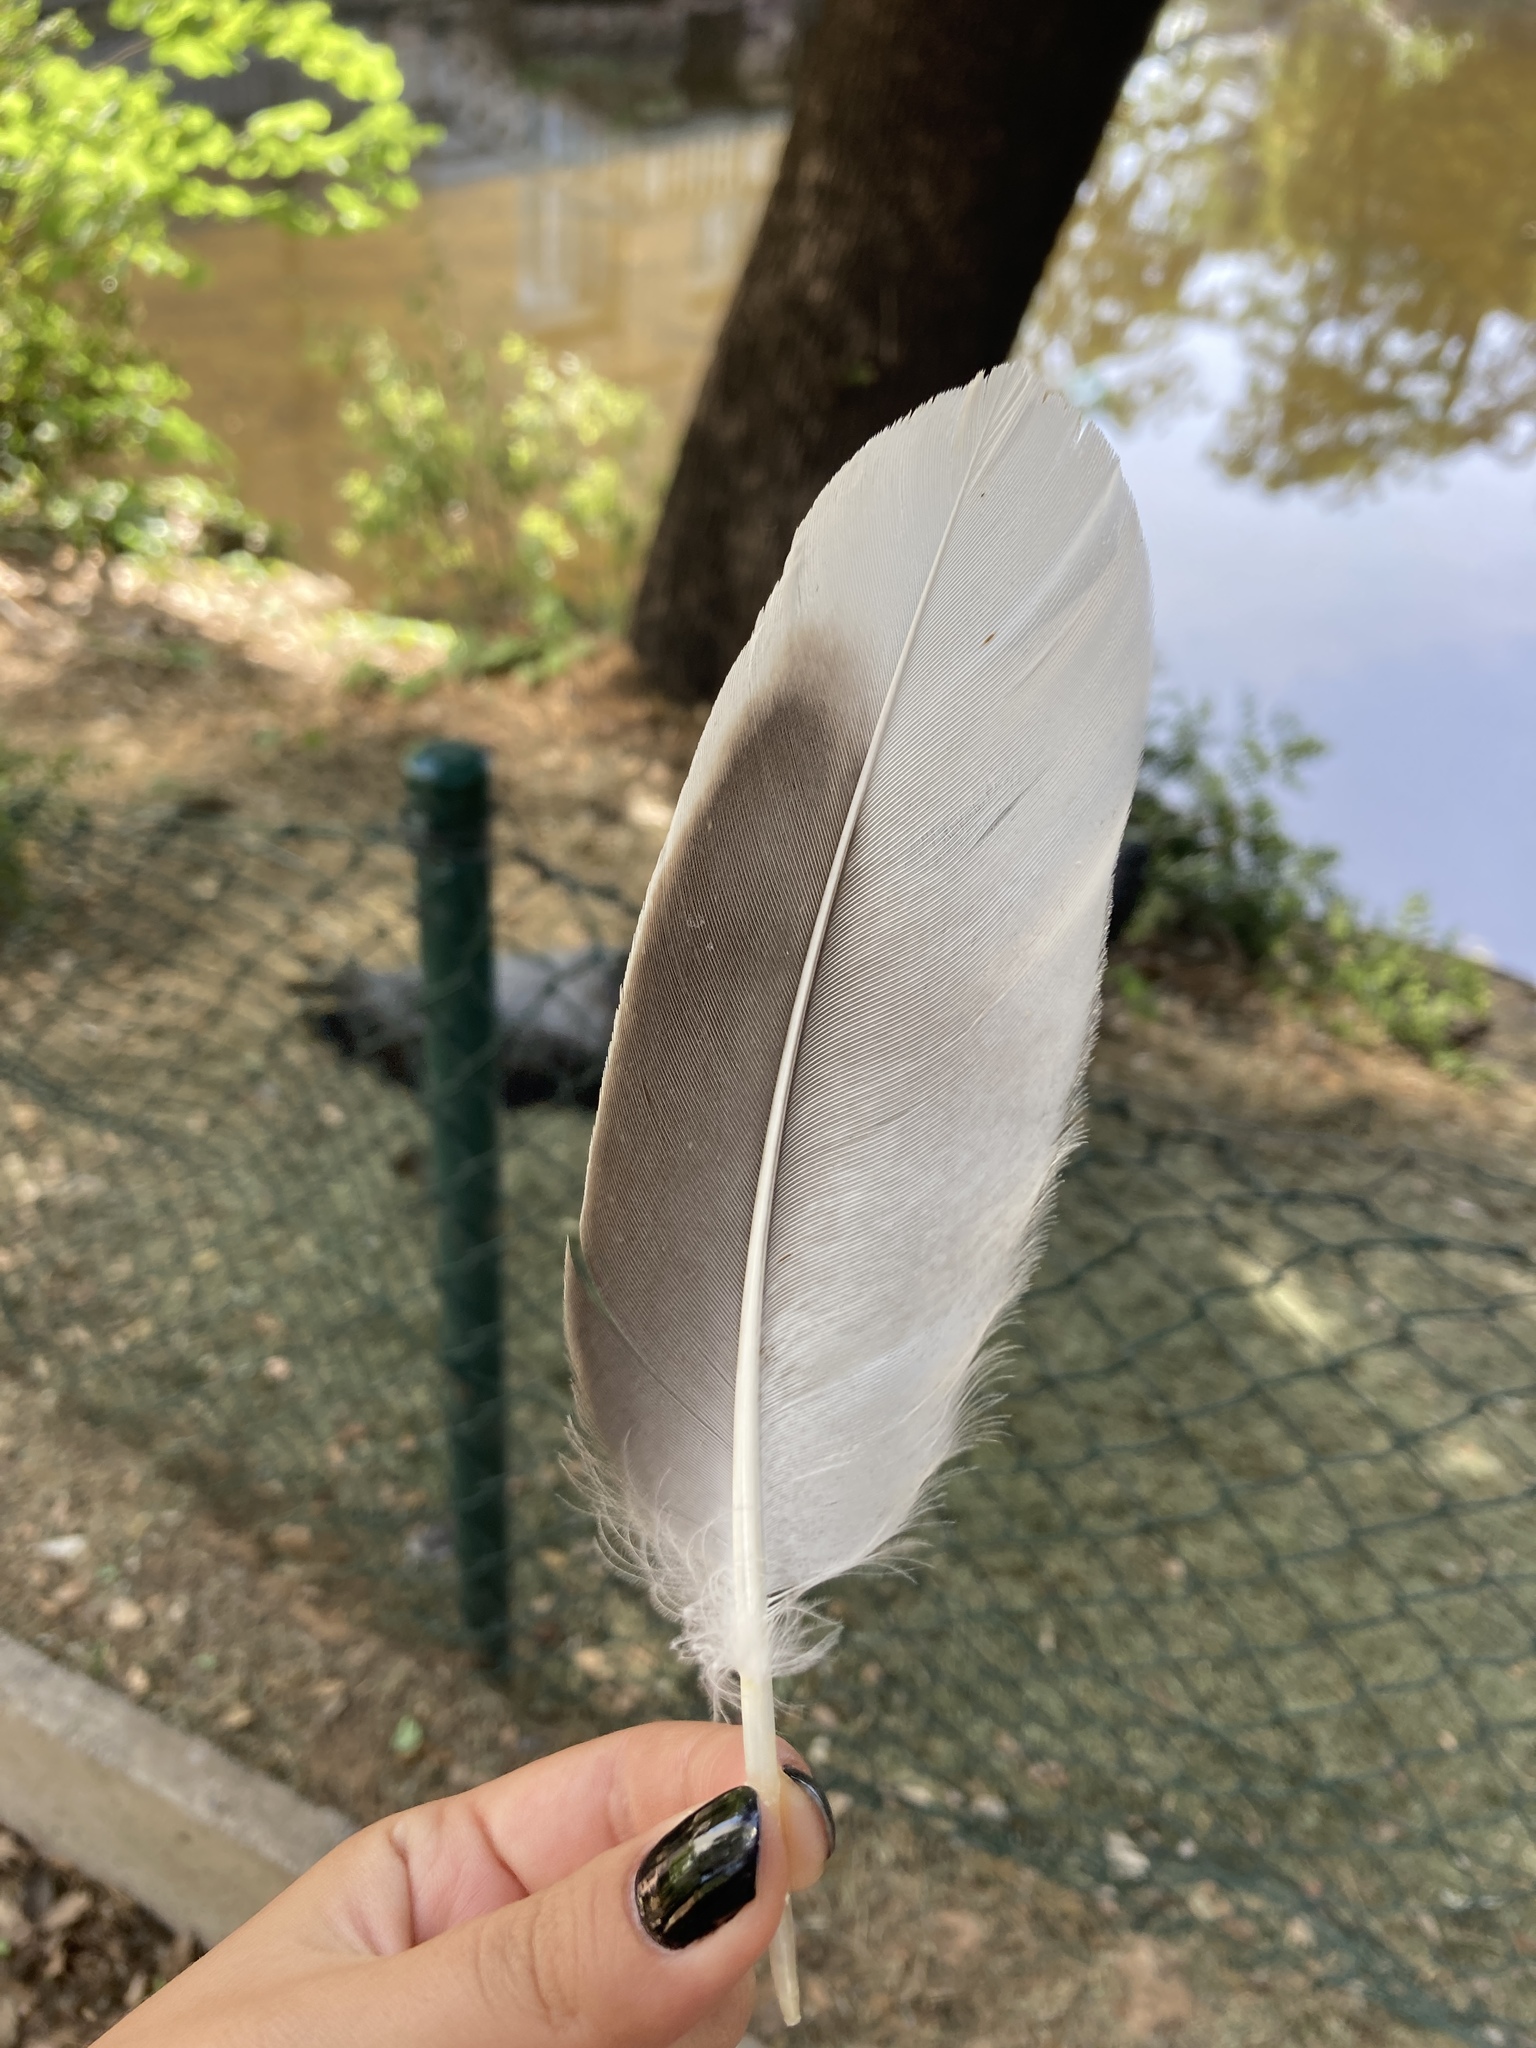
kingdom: Animalia
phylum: Chordata
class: Aves
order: Anseriformes
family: Anatidae
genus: Anser
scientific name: Anser anser
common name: Greylag goose
